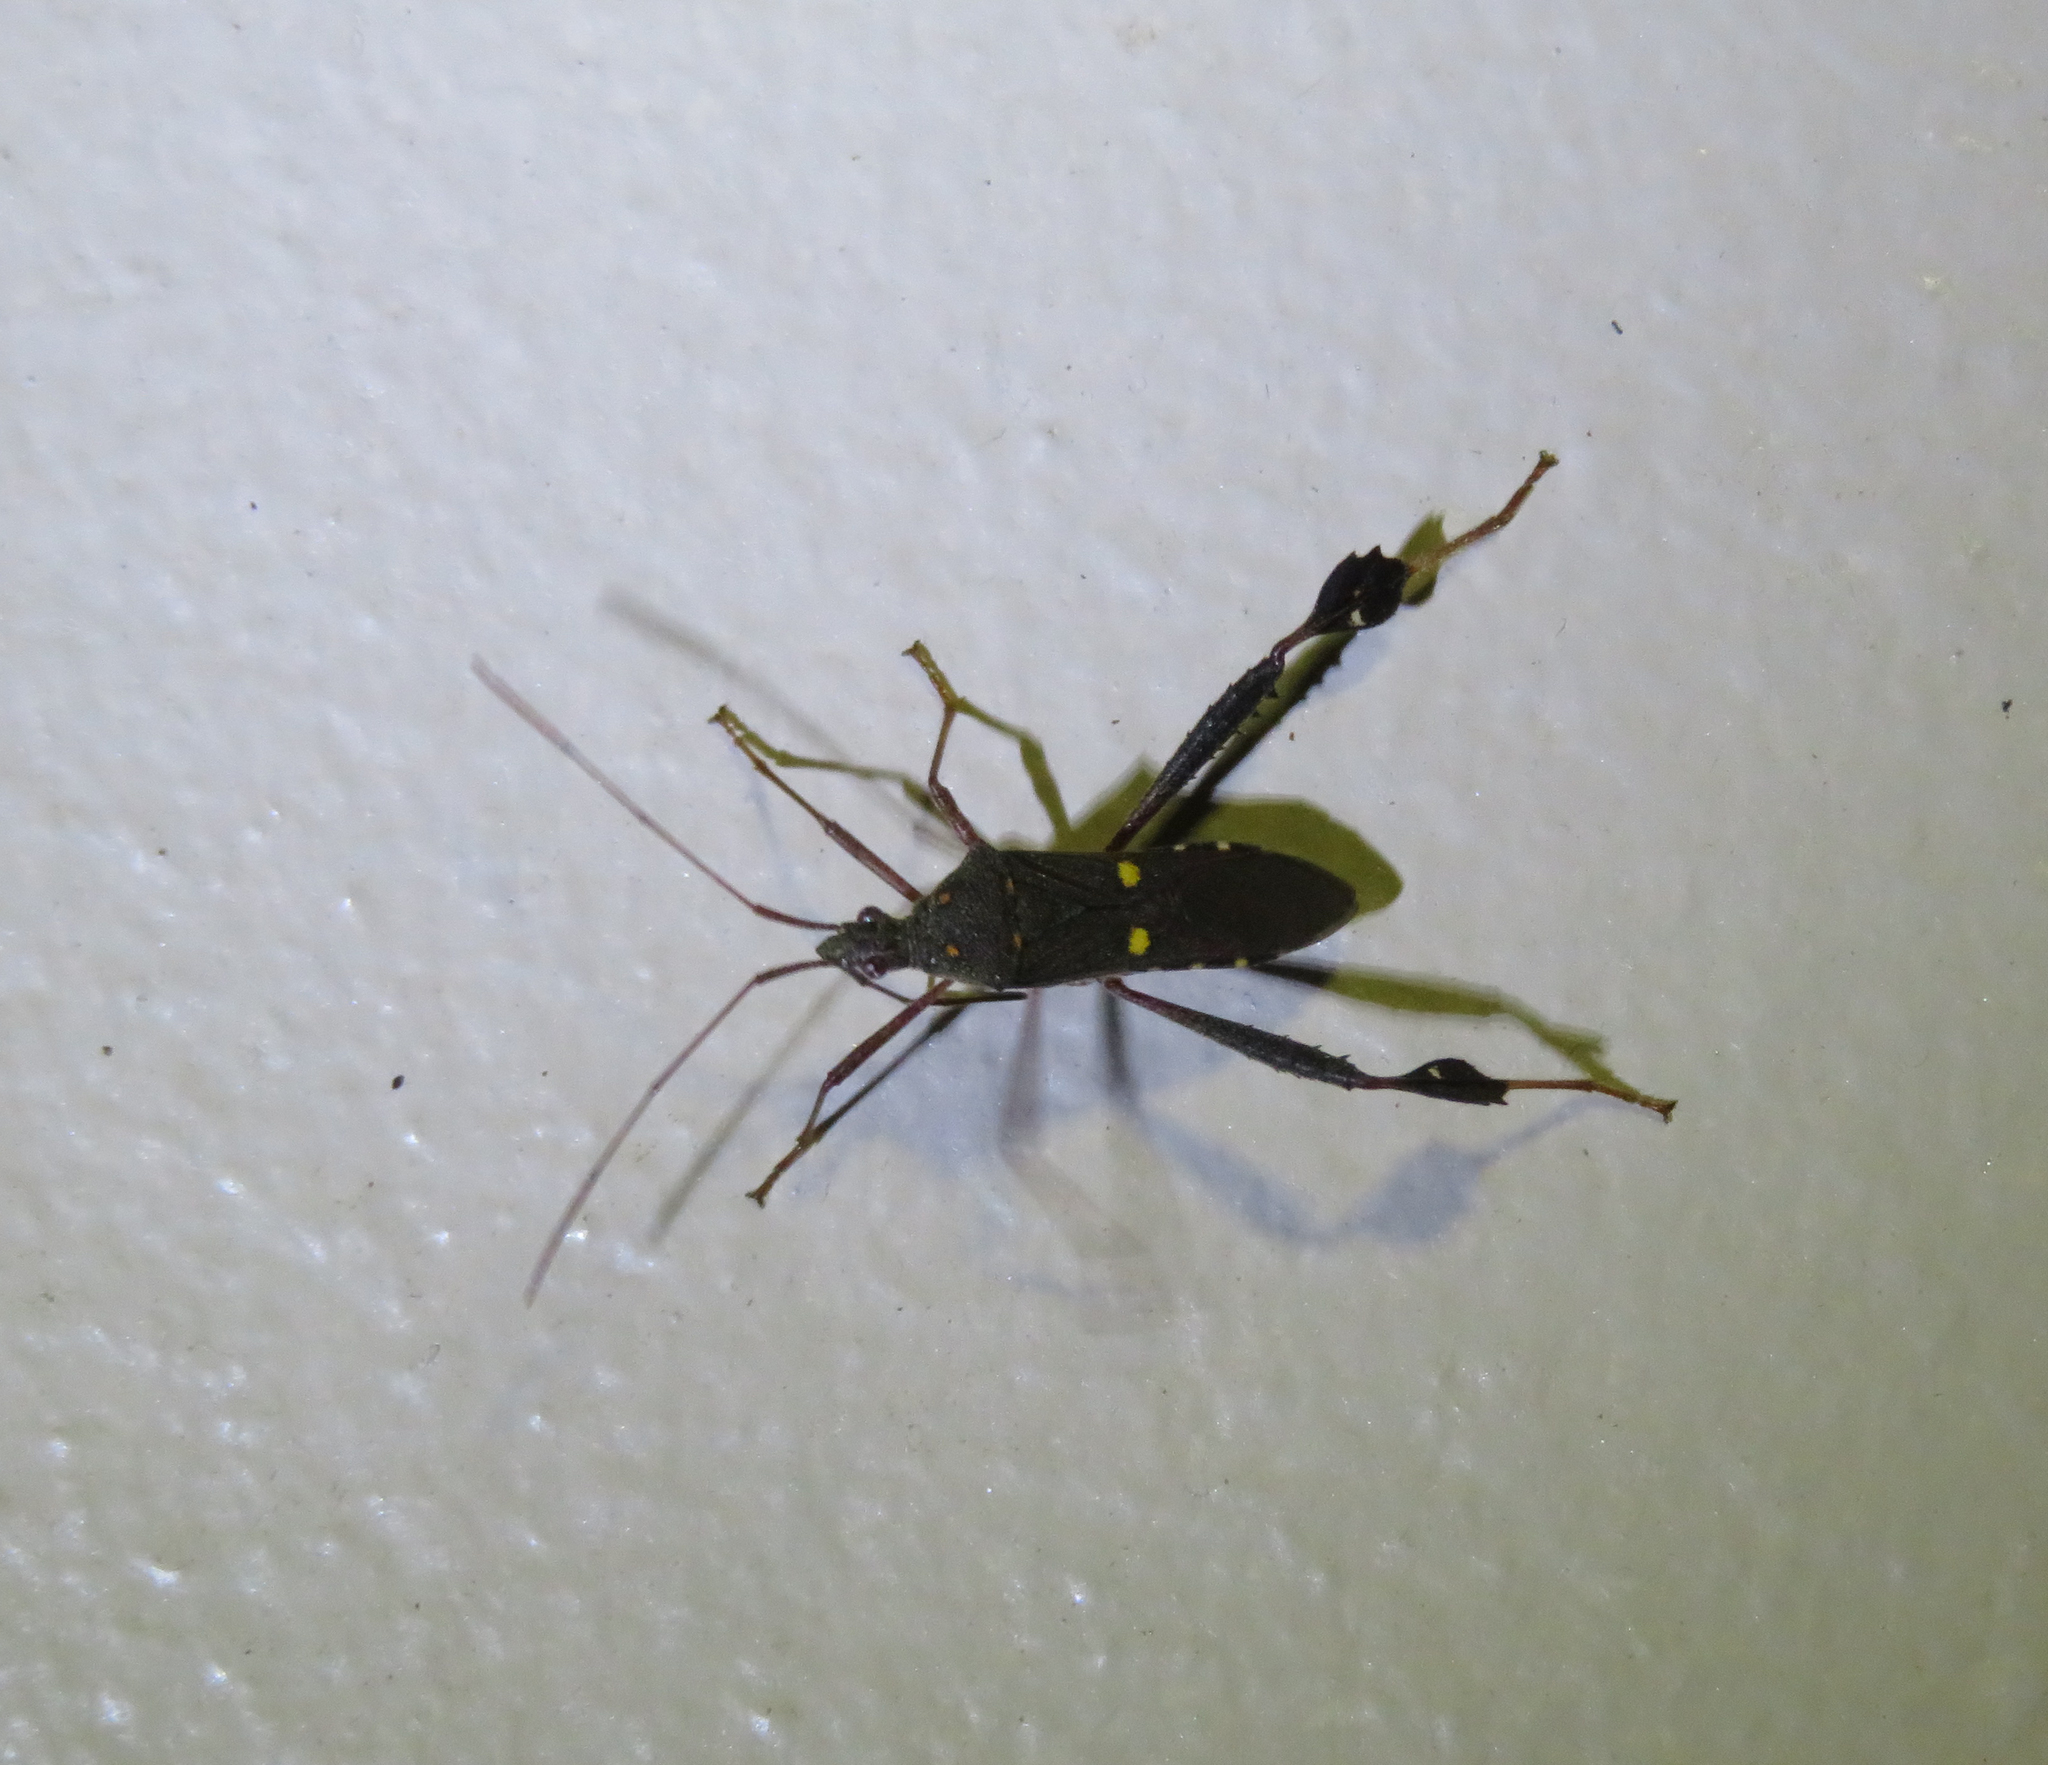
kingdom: Animalia
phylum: Arthropoda
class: Insecta
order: Hemiptera
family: Coreidae
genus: Leptoglossus
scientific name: Leptoglossus tetranotatus
